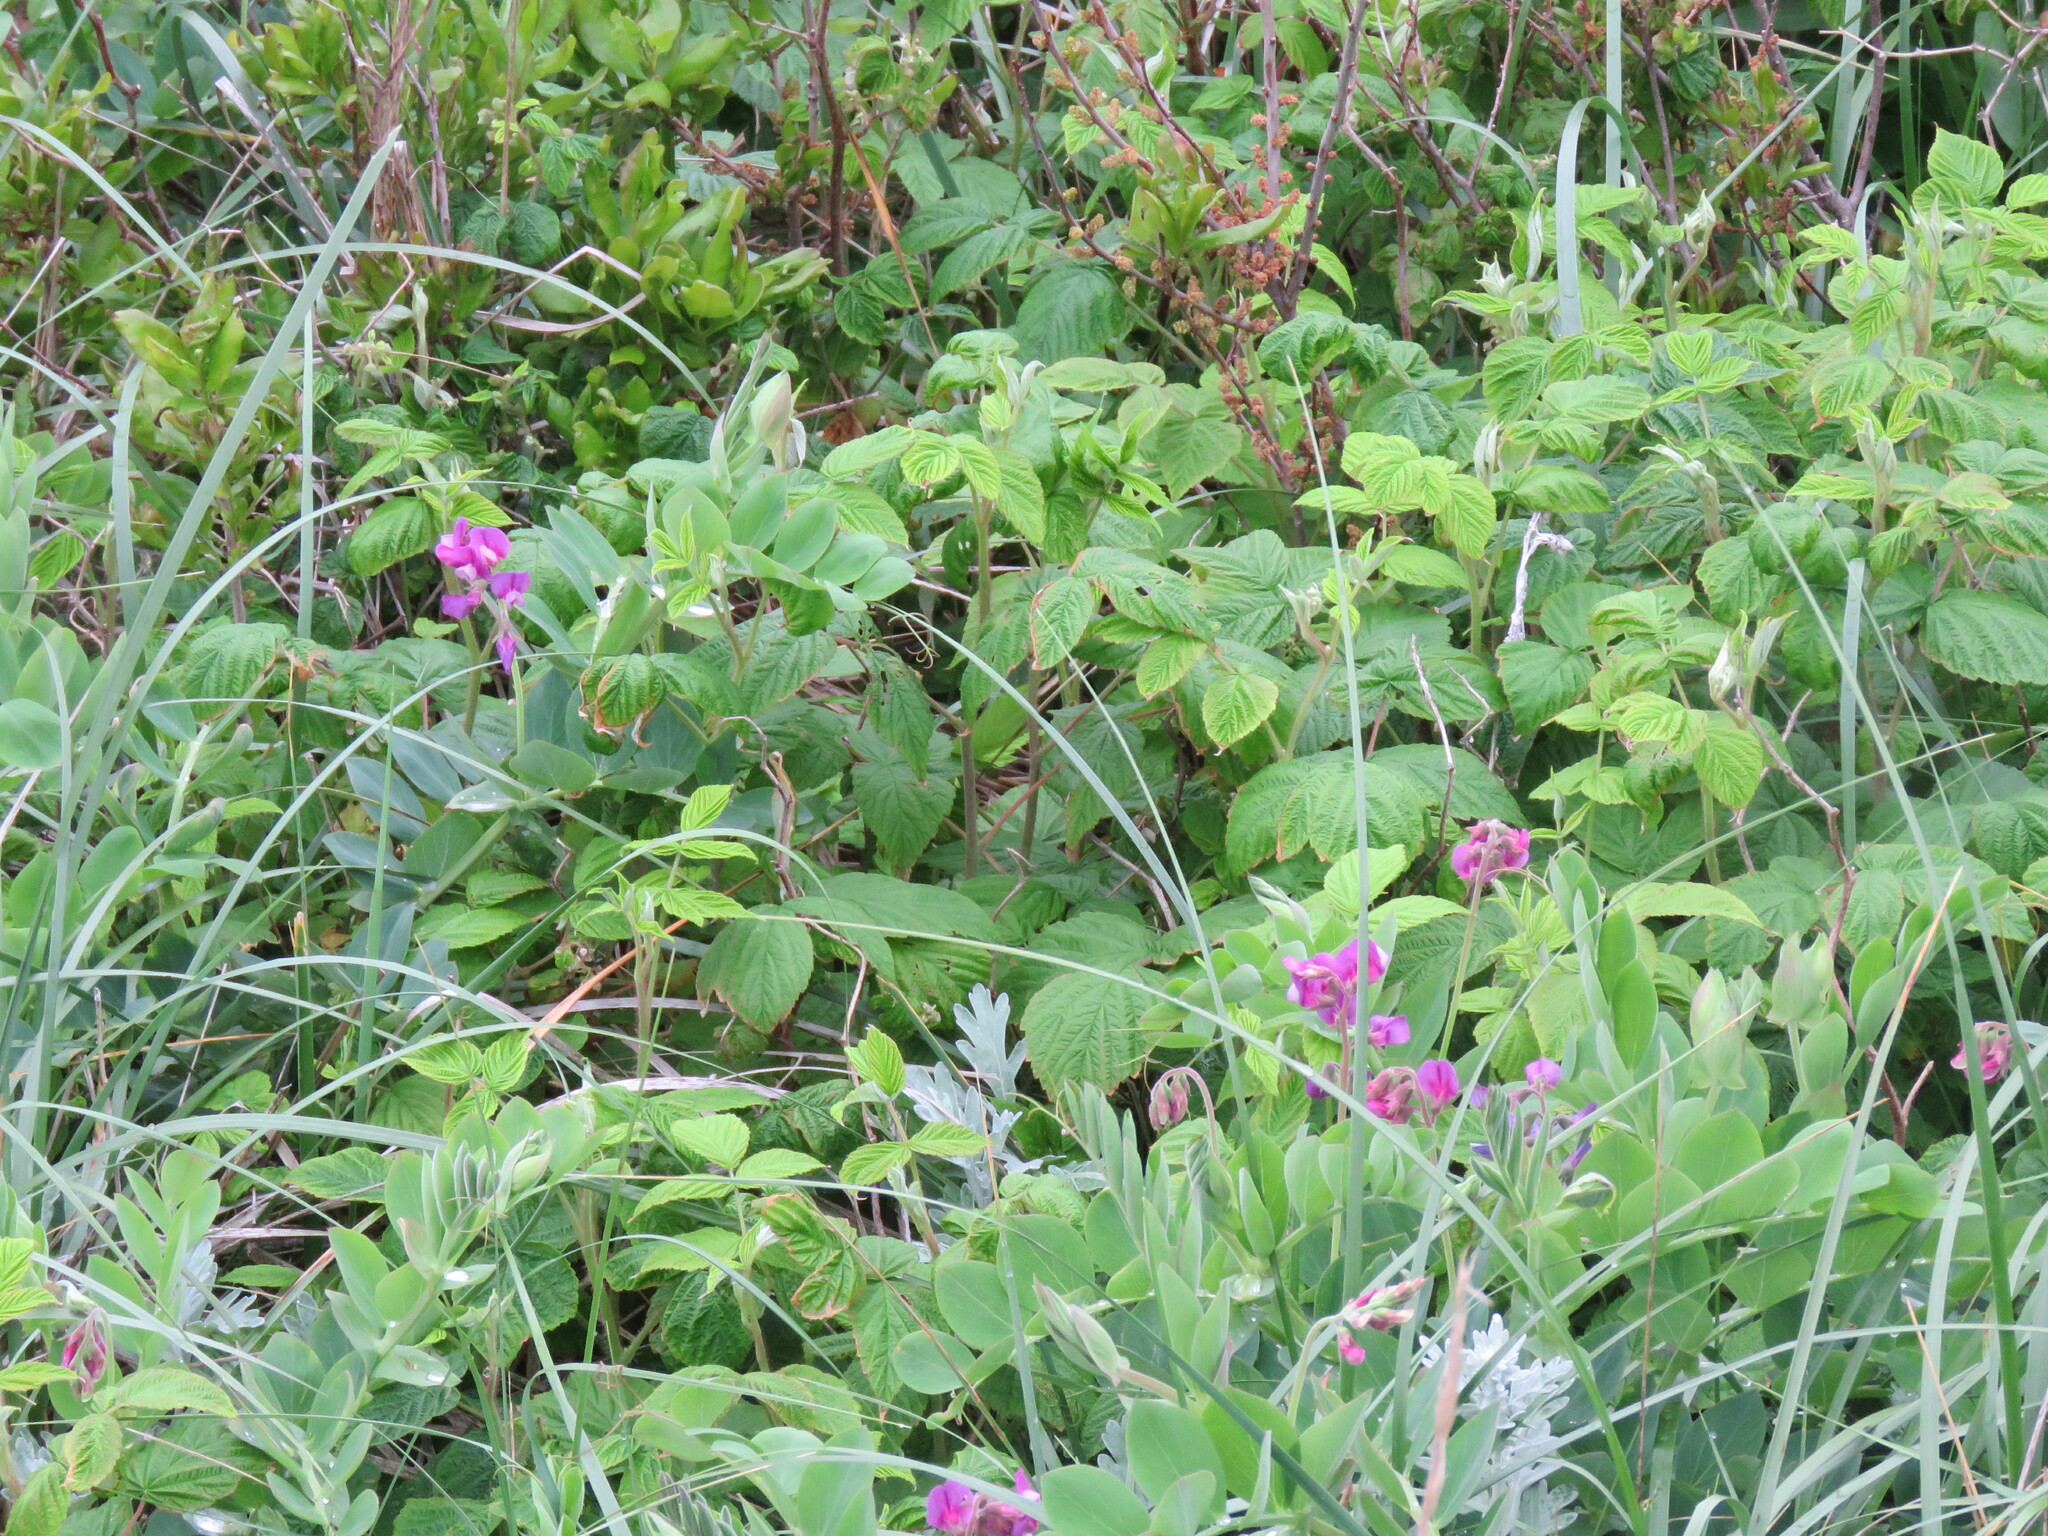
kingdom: Plantae
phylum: Tracheophyta
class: Magnoliopsida
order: Fabales
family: Fabaceae
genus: Lathyrus
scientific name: Lathyrus japonicus
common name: Sea pea
